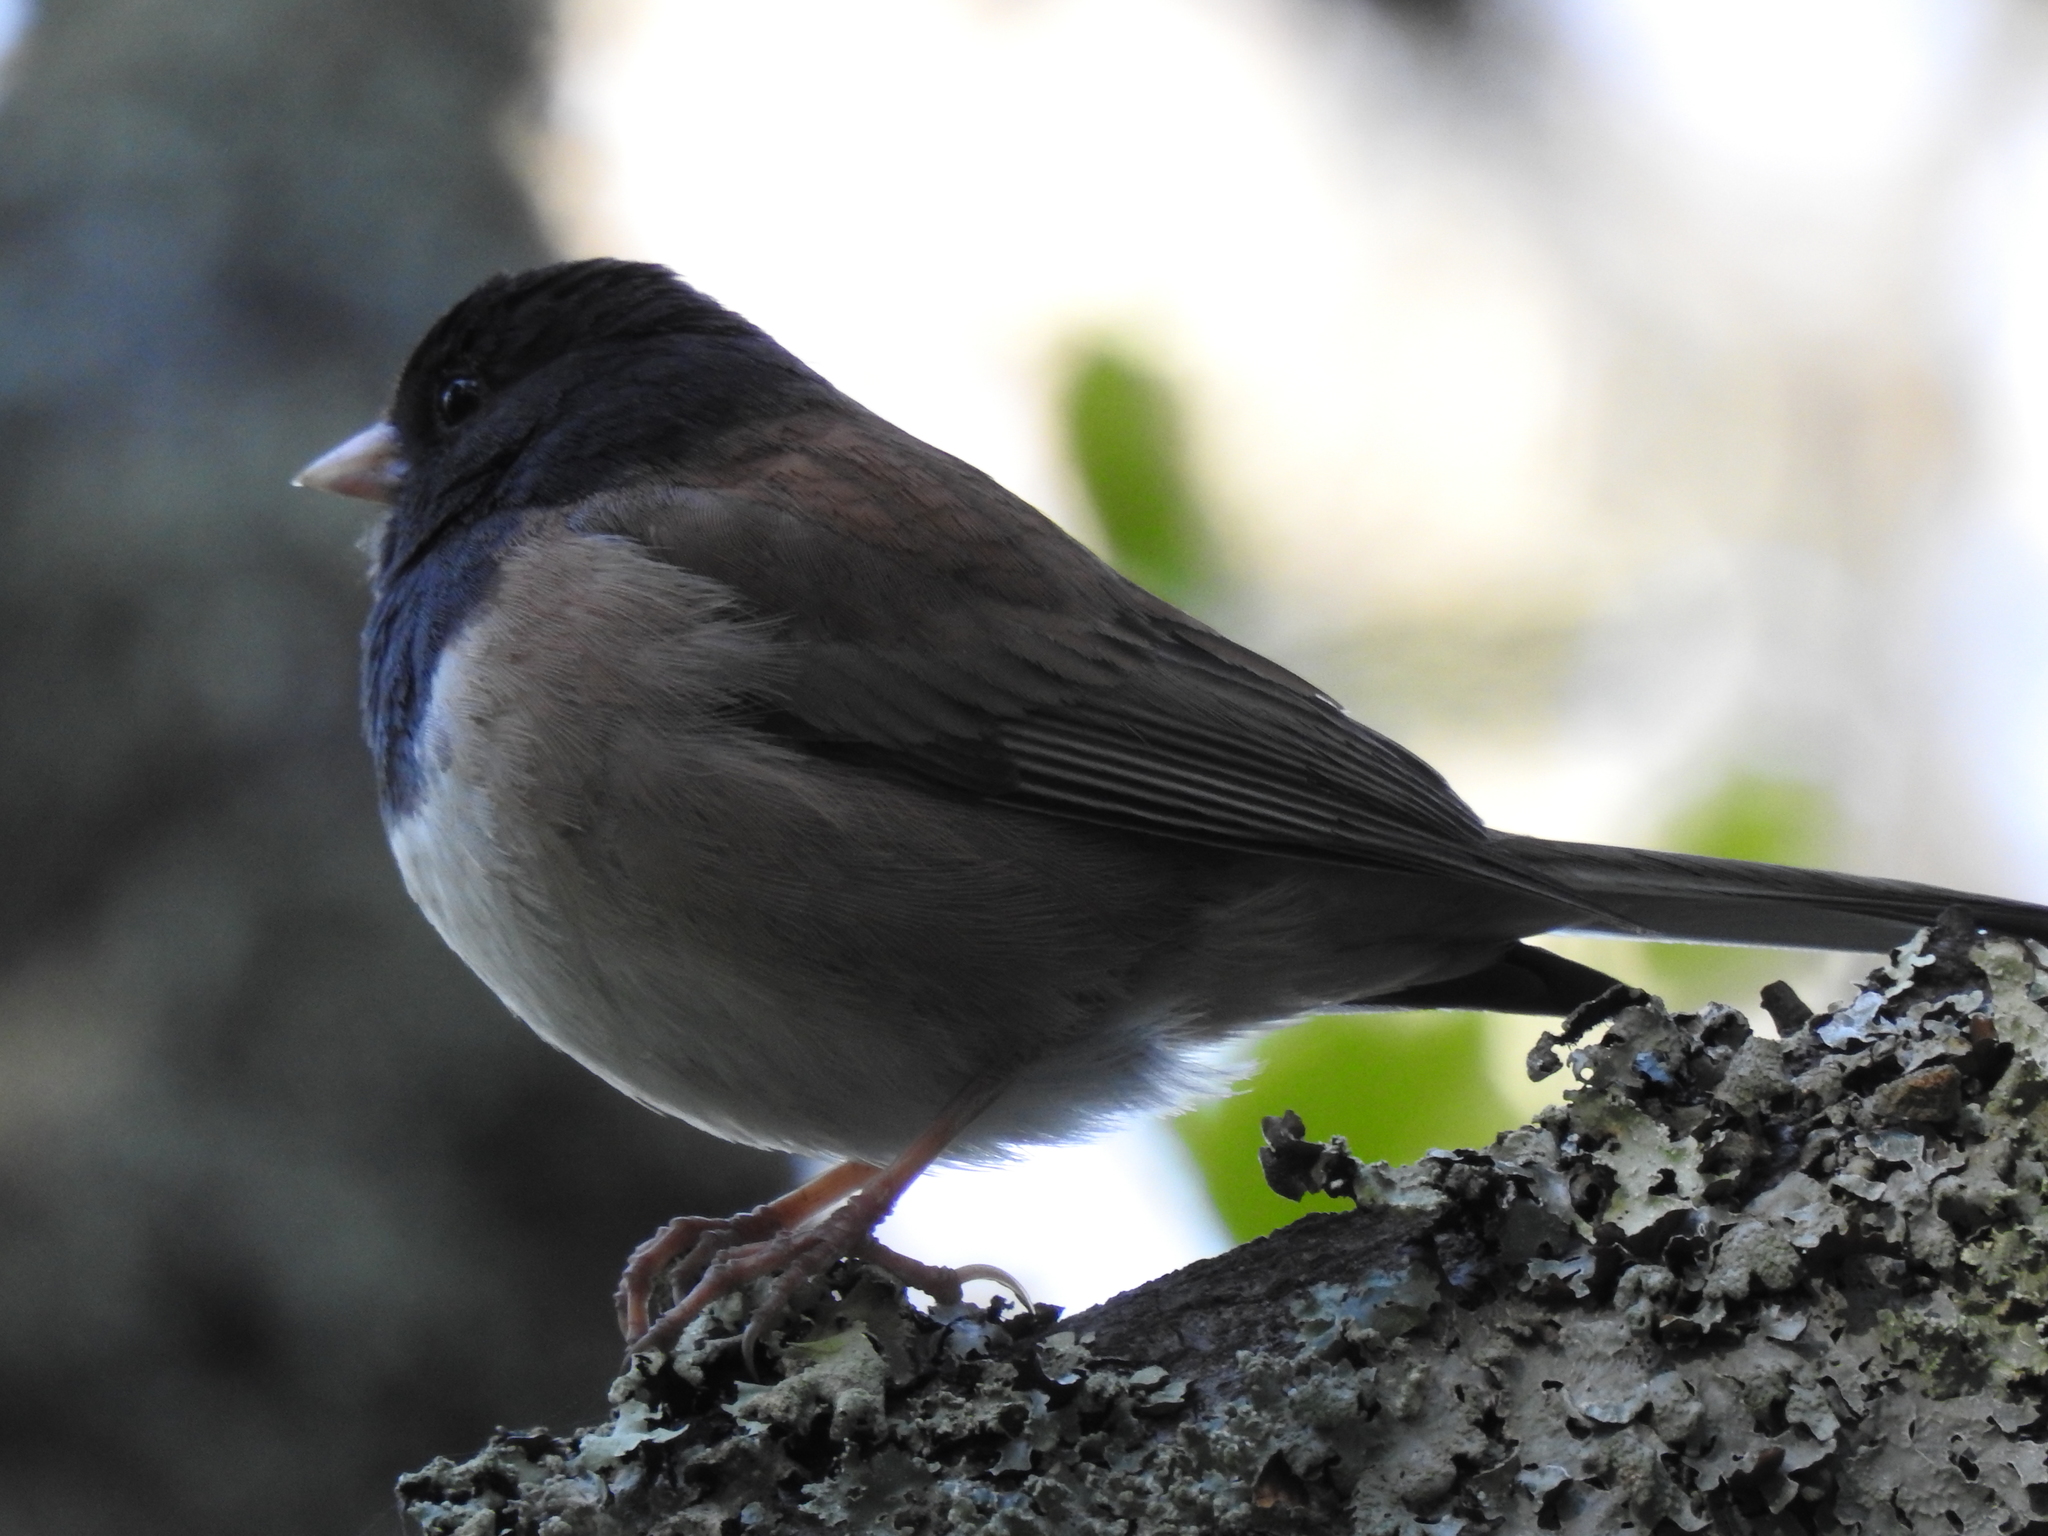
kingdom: Animalia
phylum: Chordata
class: Aves
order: Passeriformes
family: Passerellidae
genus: Junco
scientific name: Junco hyemalis
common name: Dark-eyed junco
